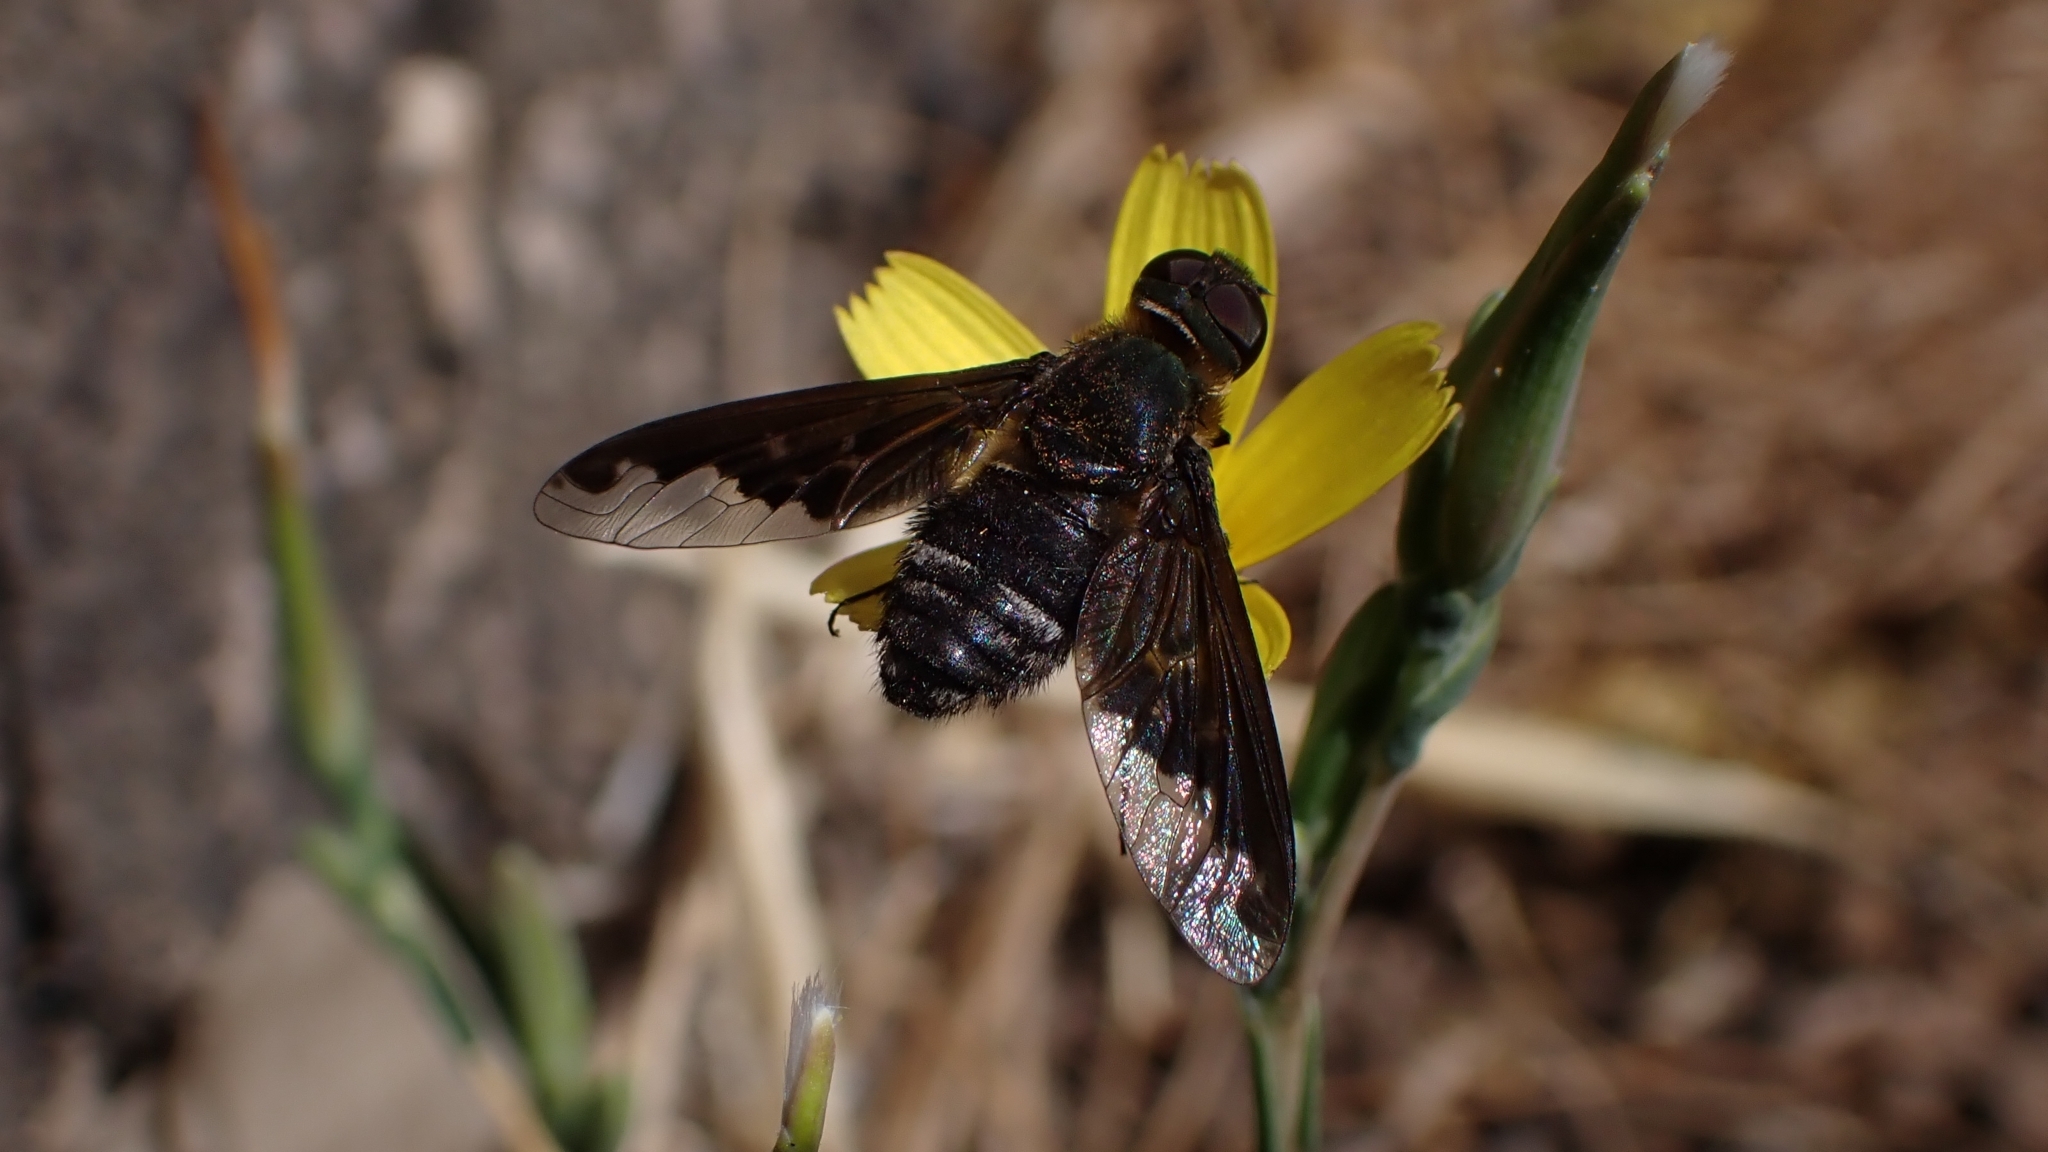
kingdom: Animalia
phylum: Arthropoda
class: Insecta
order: Diptera
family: Bombyliidae
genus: Hemipenthes
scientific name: Hemipenthes velutina
